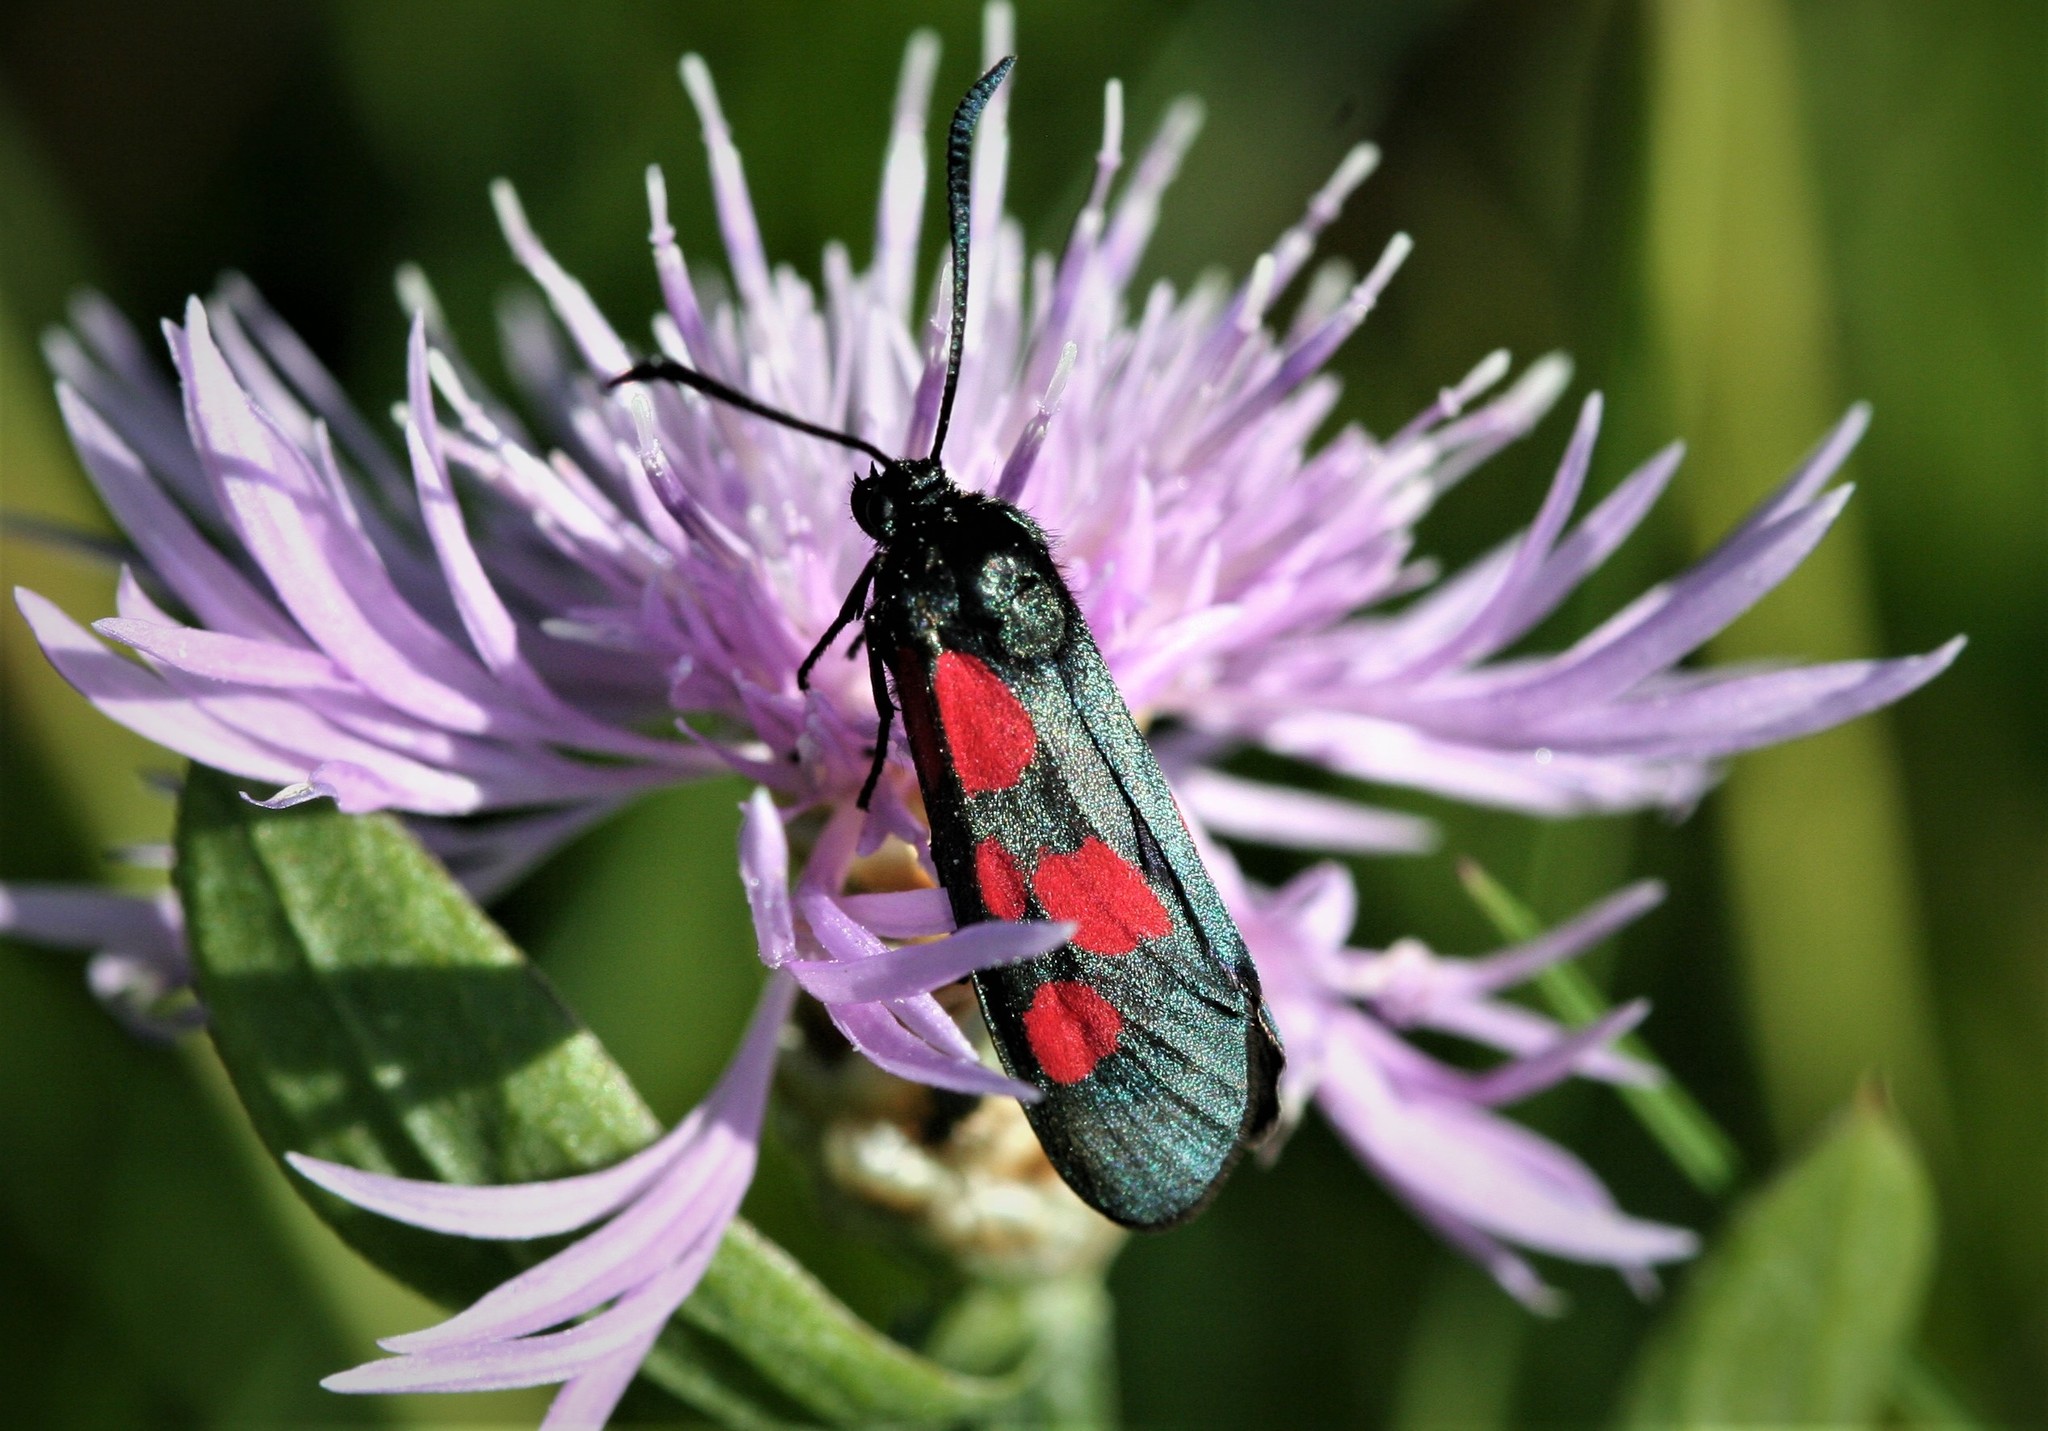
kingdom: Animalia
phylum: Arthropoda
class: Insecta
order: Lepidoptera
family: Zygaenidae
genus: Zygaena
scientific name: Zygaena viciae
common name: New forest burnet
